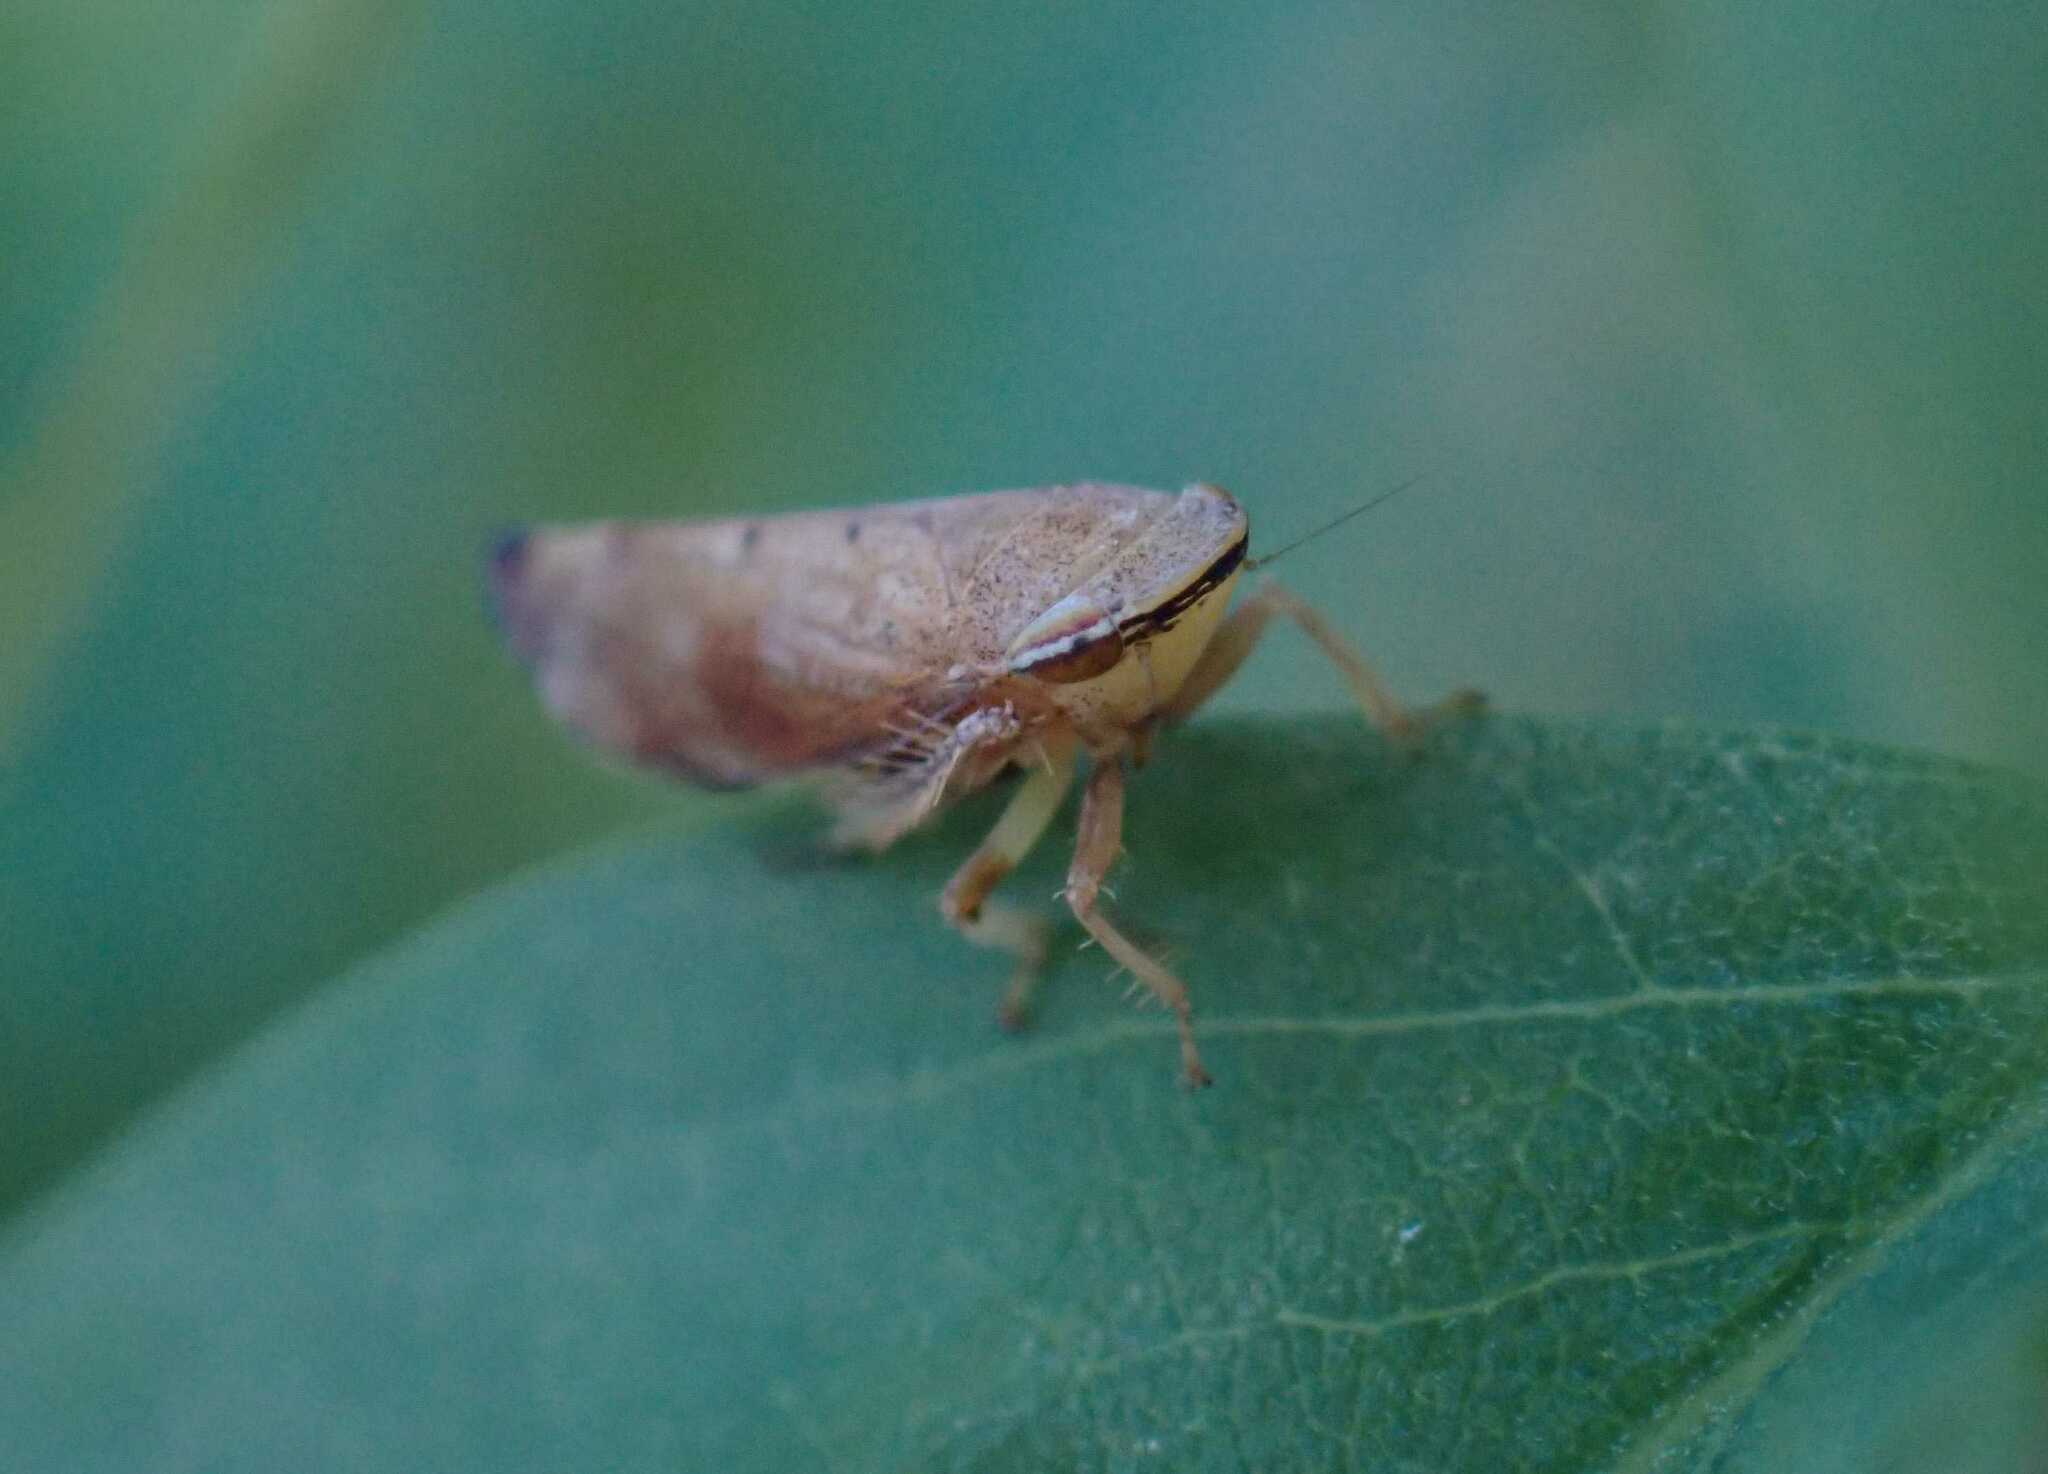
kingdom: Animalia
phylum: Arthropoda
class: Insecta
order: Hemiptera
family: Cicadellidae
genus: Fieberiella
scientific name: Fieberiella
